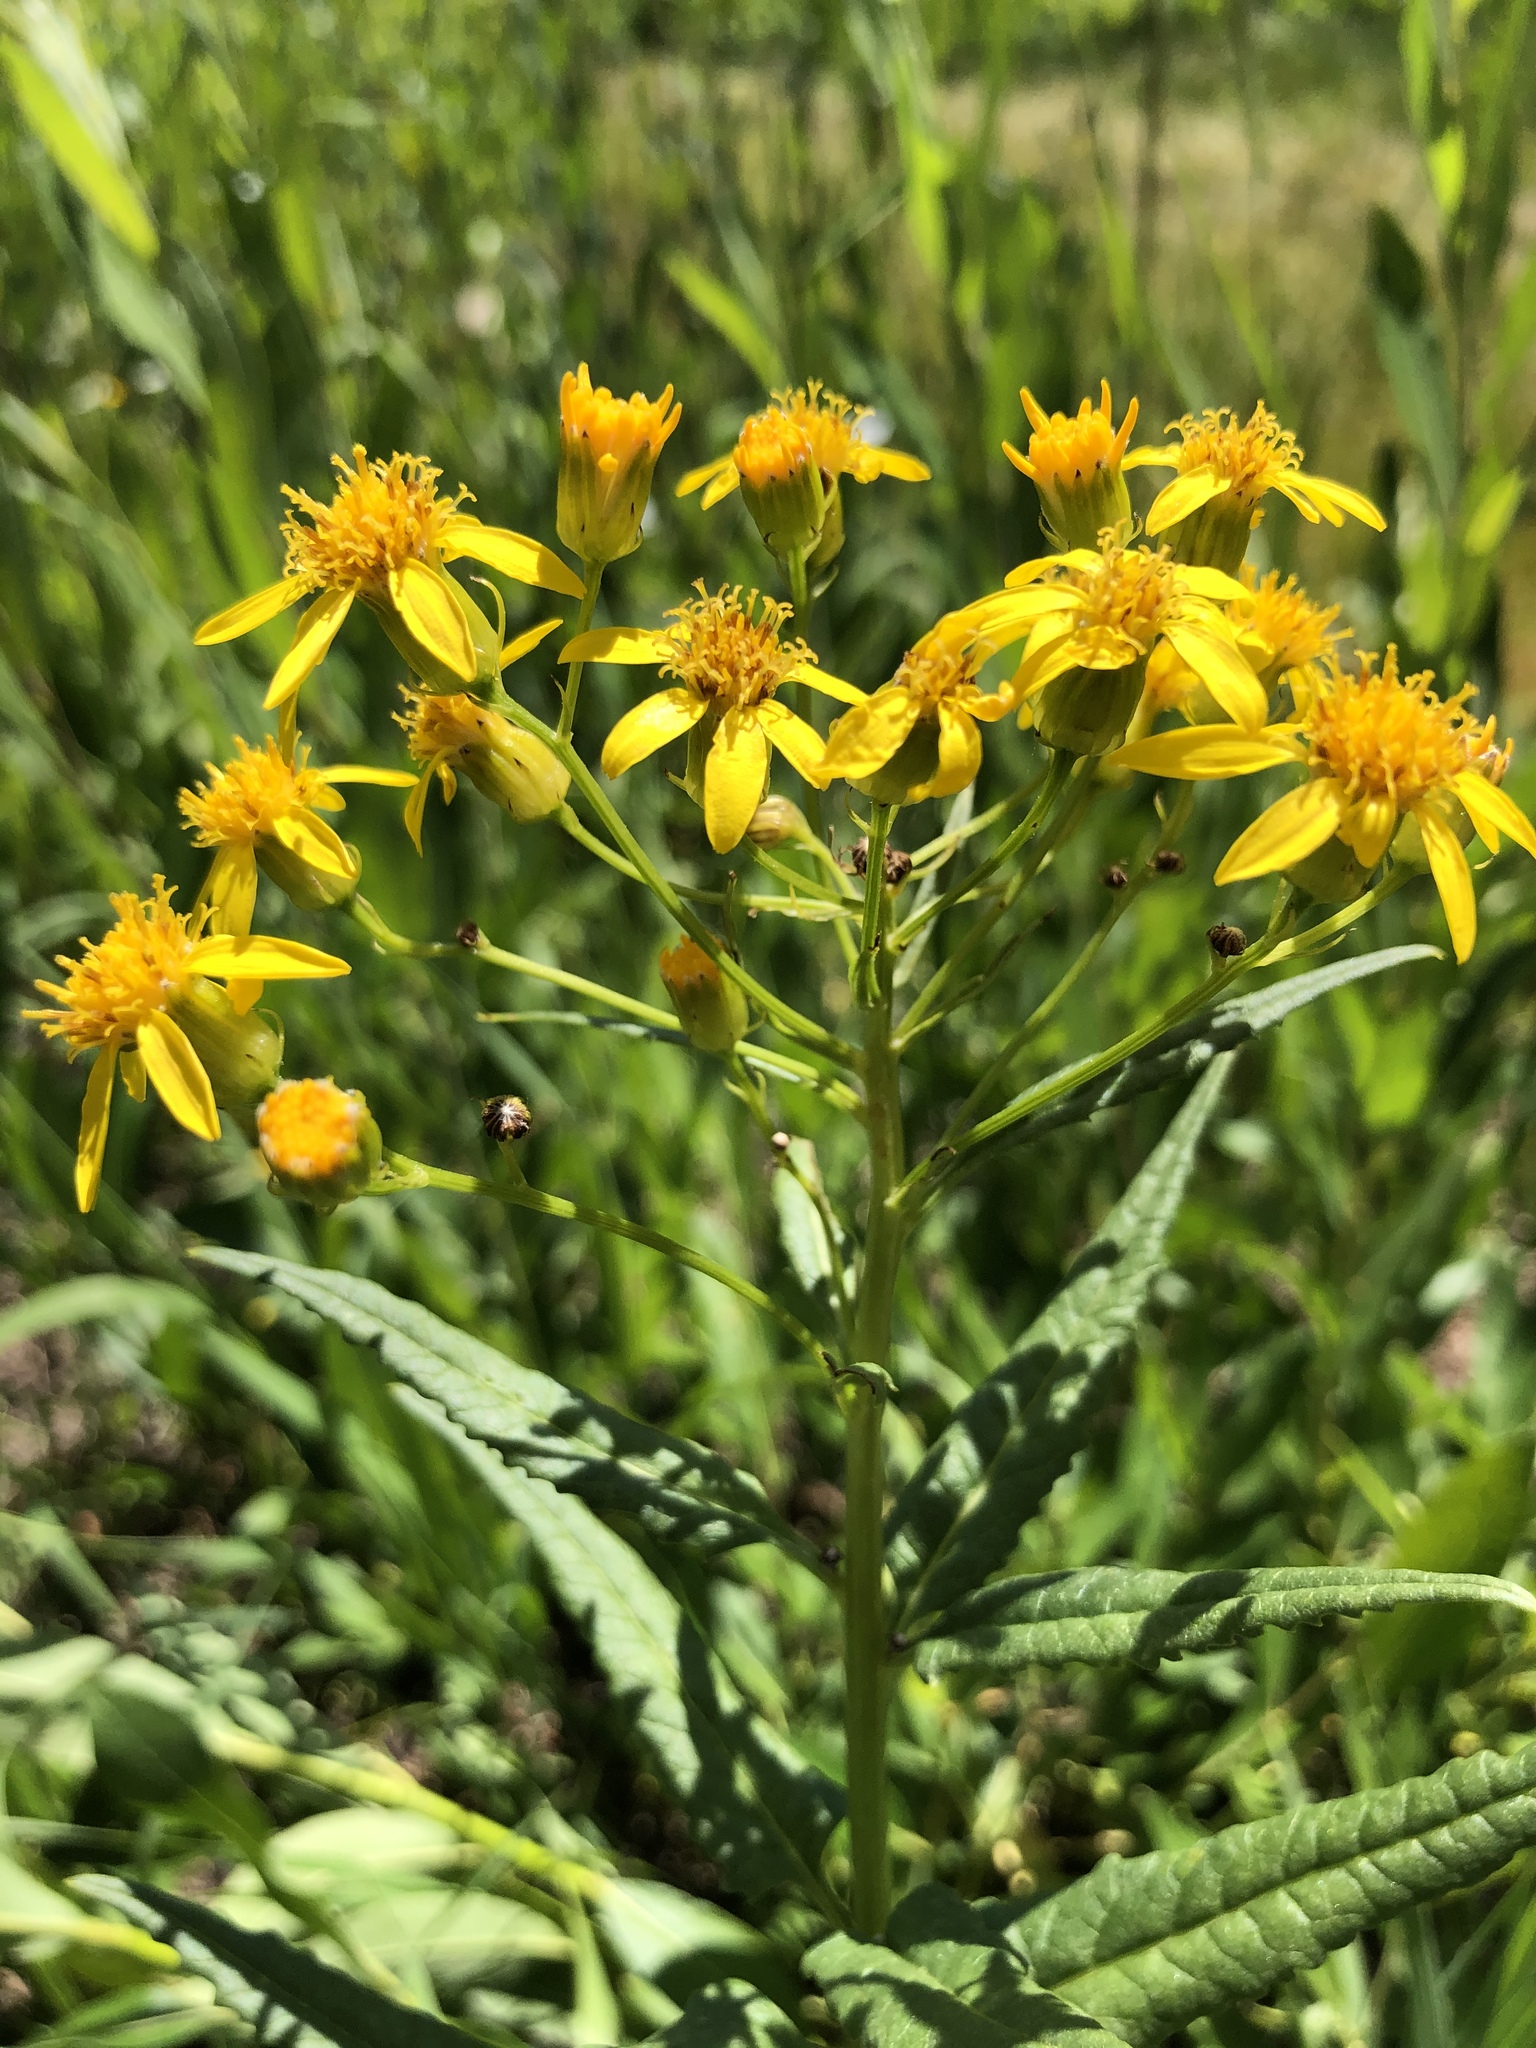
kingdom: Plantae
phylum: Tracheophyta
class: Magnoliopsida
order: Asterales
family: Asteraceae
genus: Senecio
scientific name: Senecio triangularis
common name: Arrowleaf butterweed
